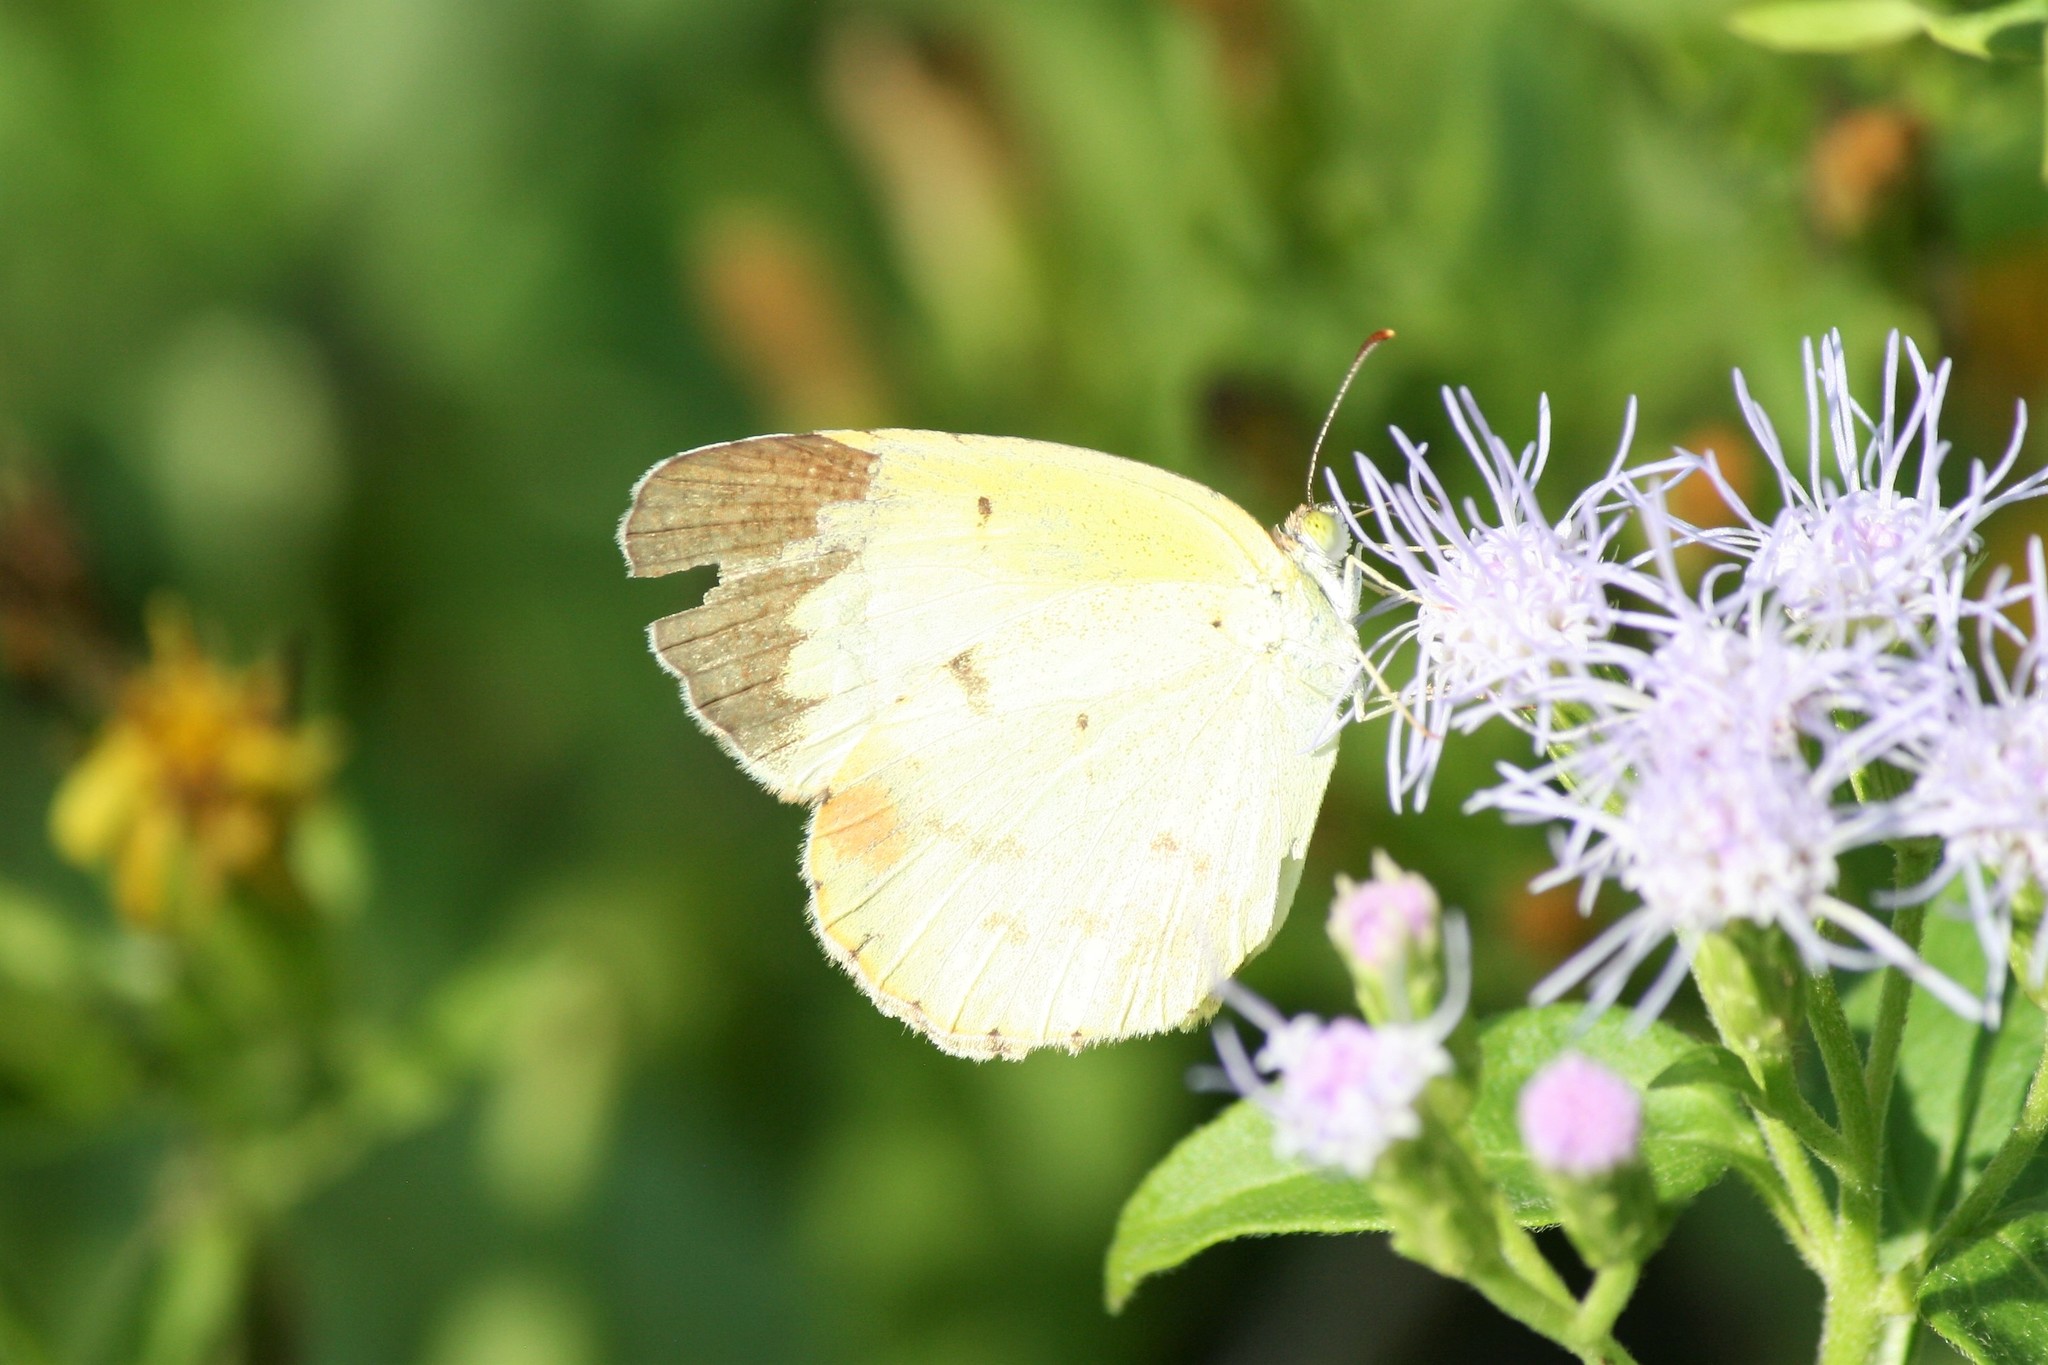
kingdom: Animalia
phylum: Arthropoda
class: Insecta
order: Lepidoptera
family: Pieridae
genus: Pyrisitia
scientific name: Pyrisitia lisa
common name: Little yellow
